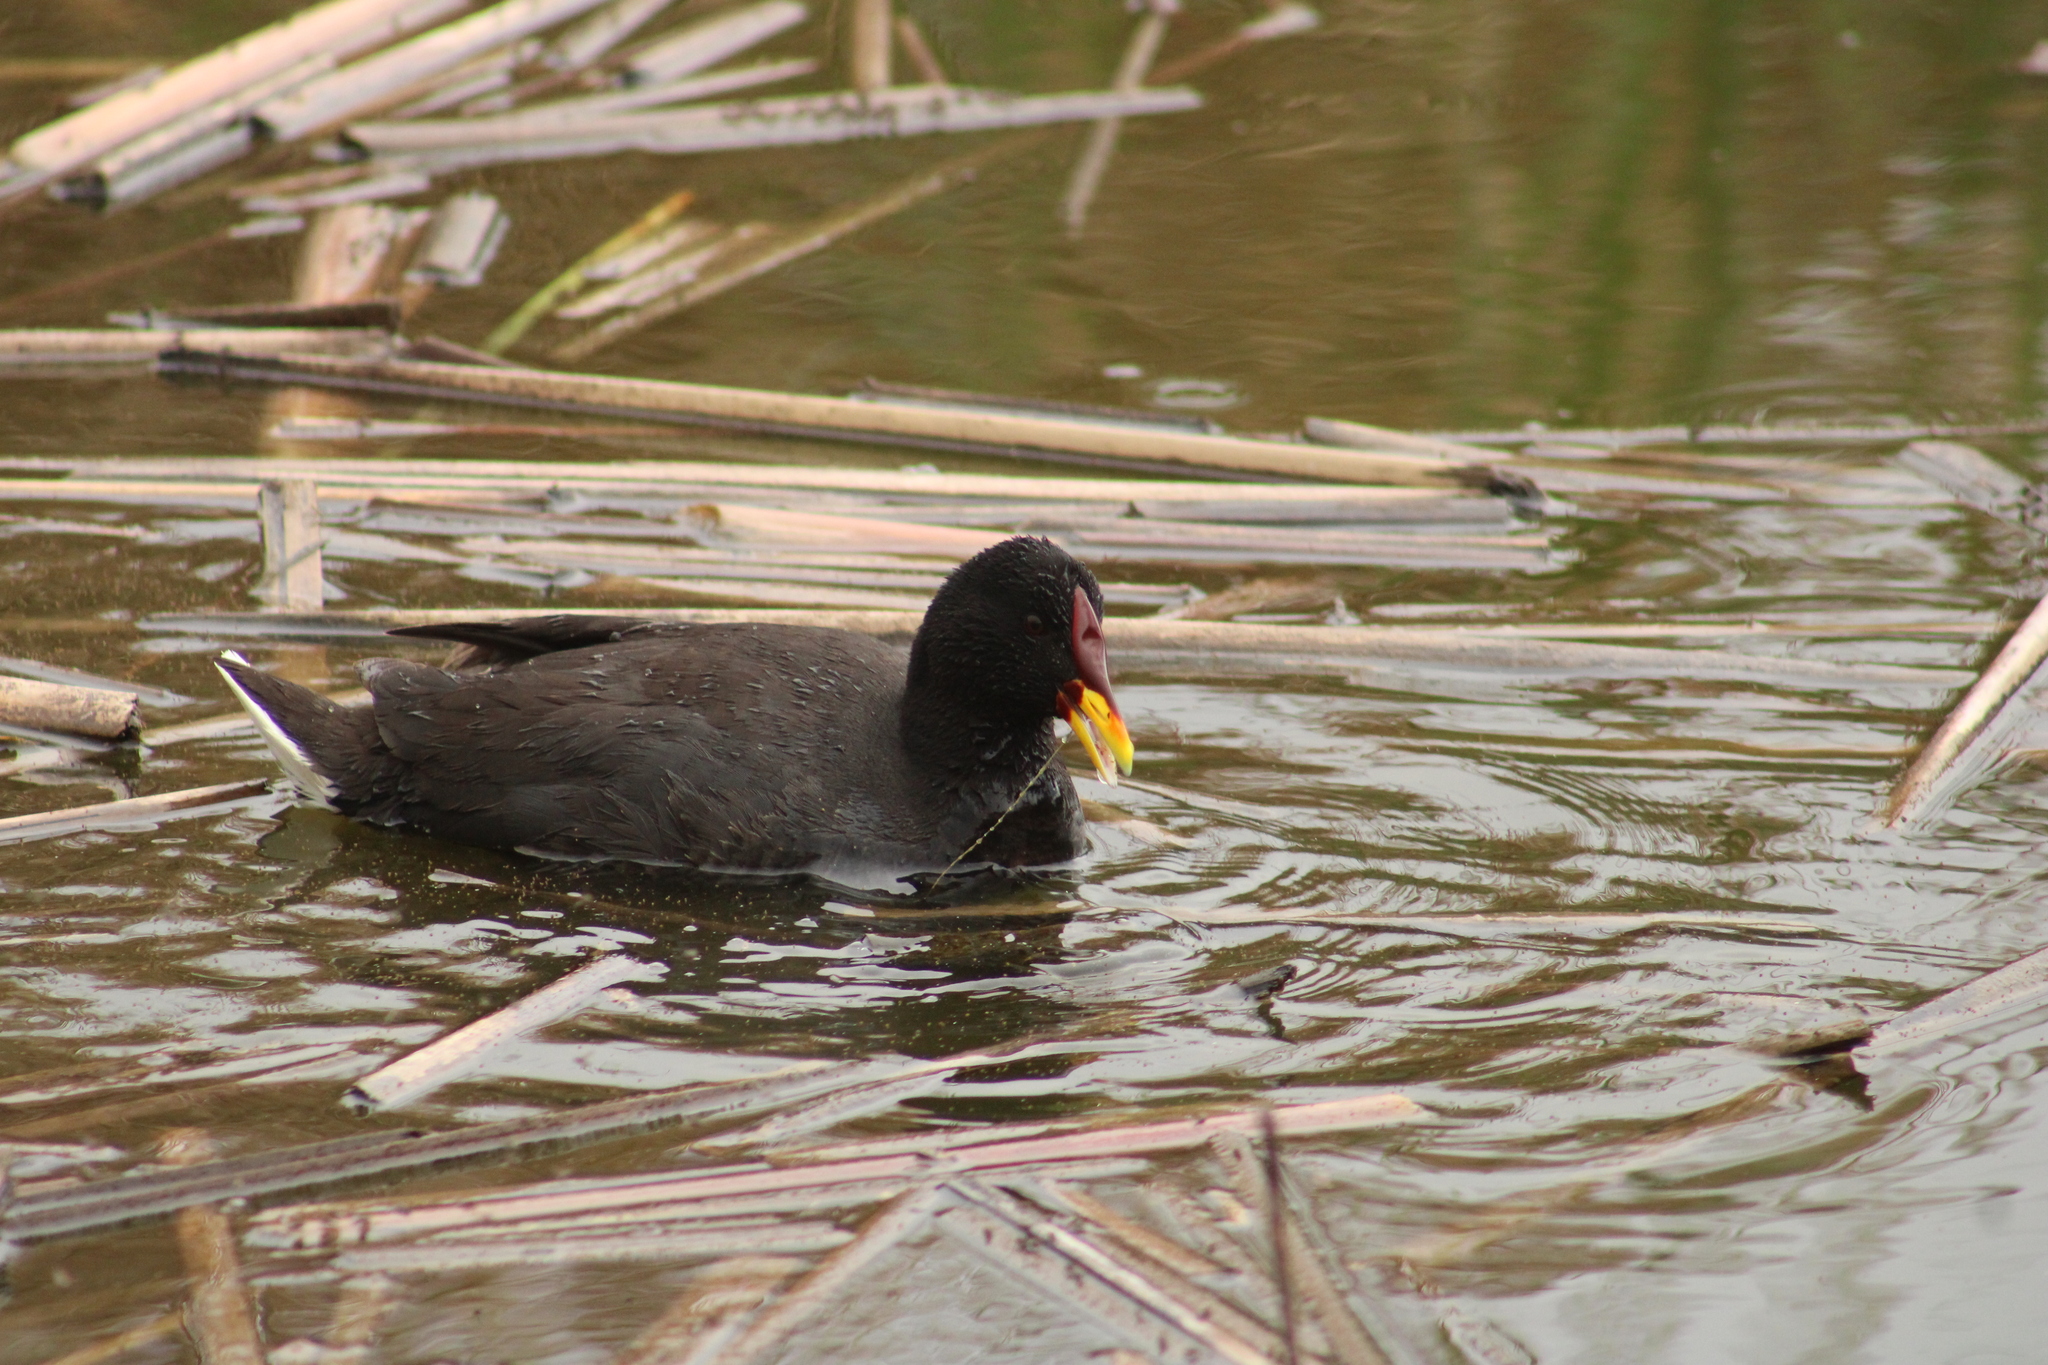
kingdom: Animalia
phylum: Chordata
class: Aves
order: Gruiformes
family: Rallidae
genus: Fulica
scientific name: Fulica rufifrons
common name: Red-fronted coot
